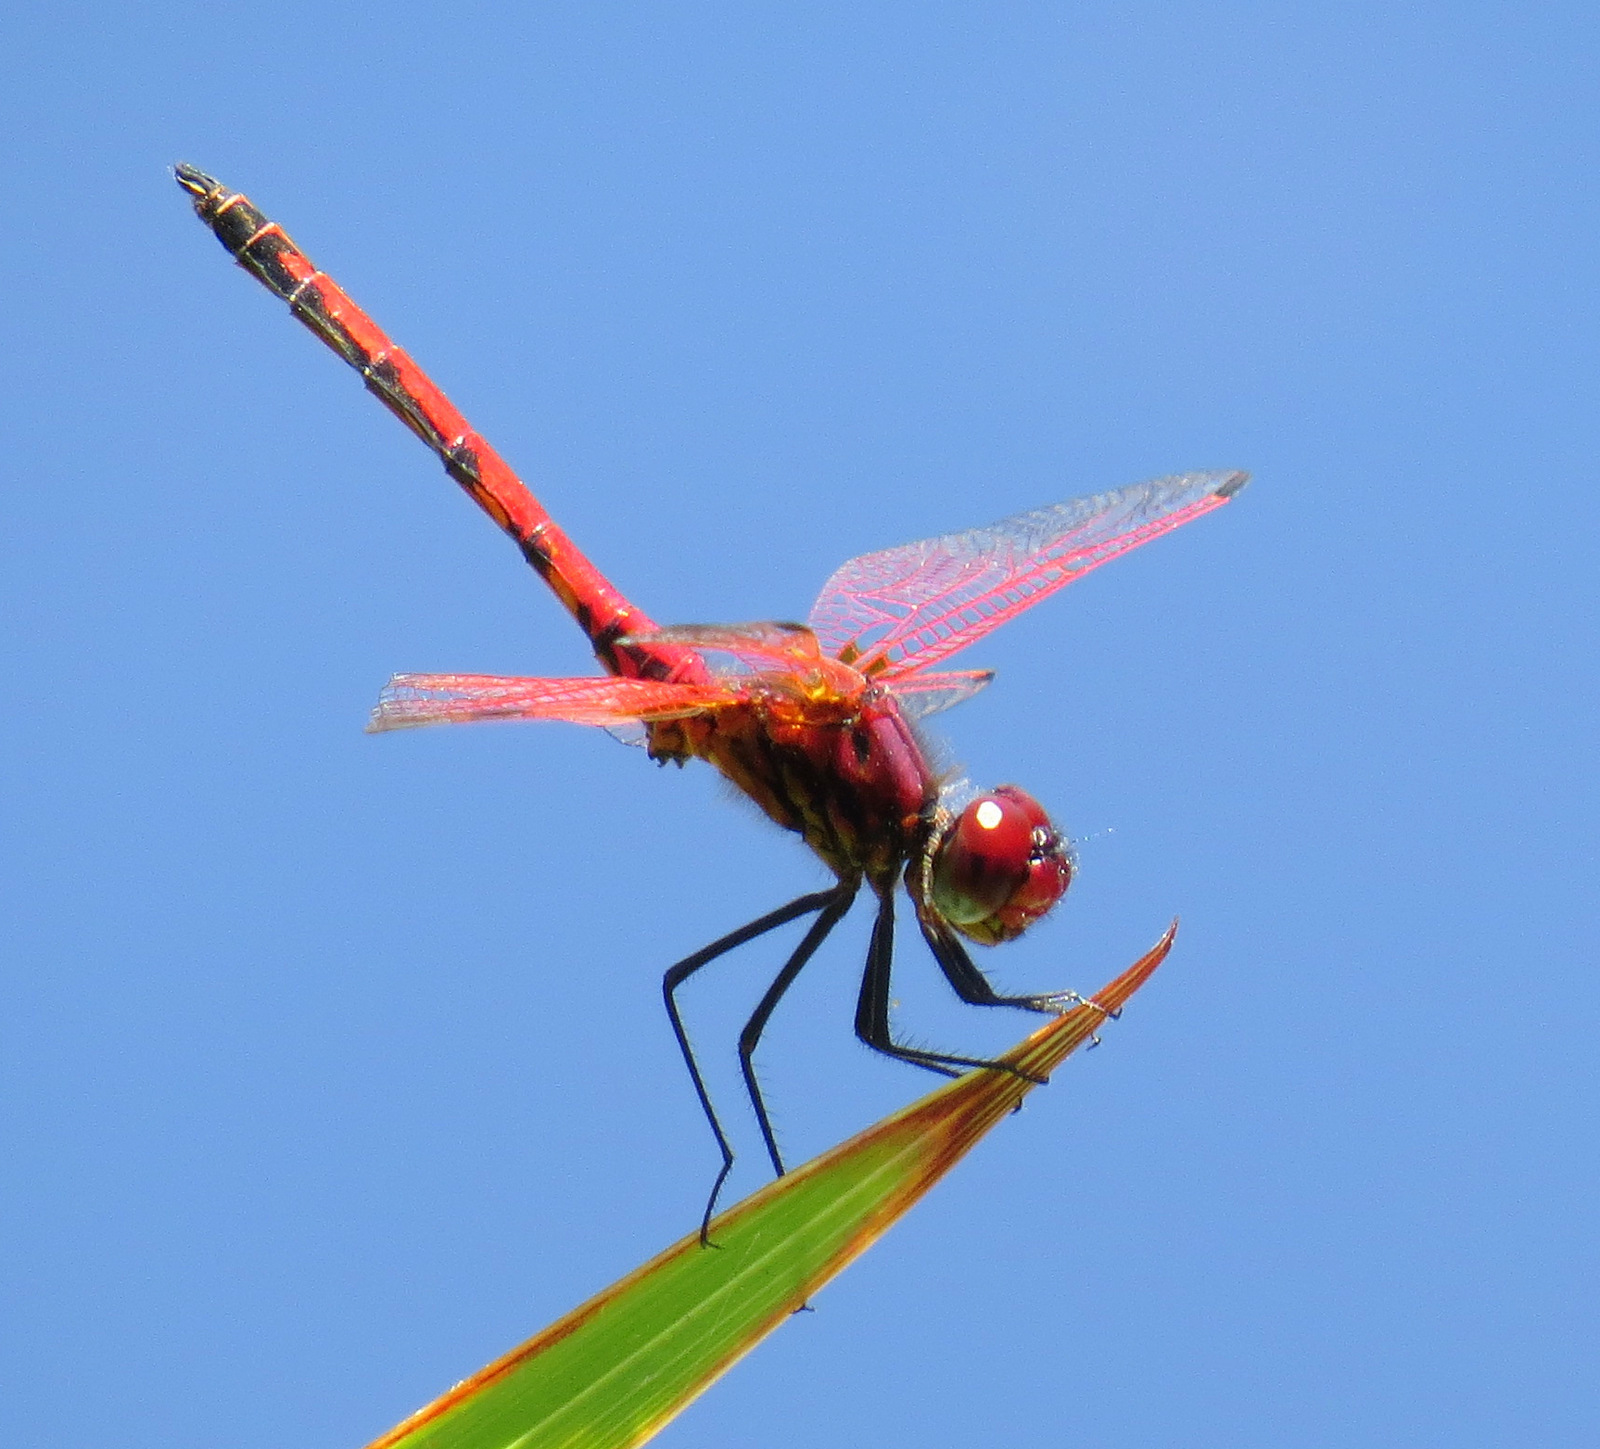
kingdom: Animalia
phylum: Arthropoda
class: Insecta
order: Odonata
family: Libellulidae
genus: Trithemis
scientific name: Trithemis arteriosa
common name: Red-veined dropwing
